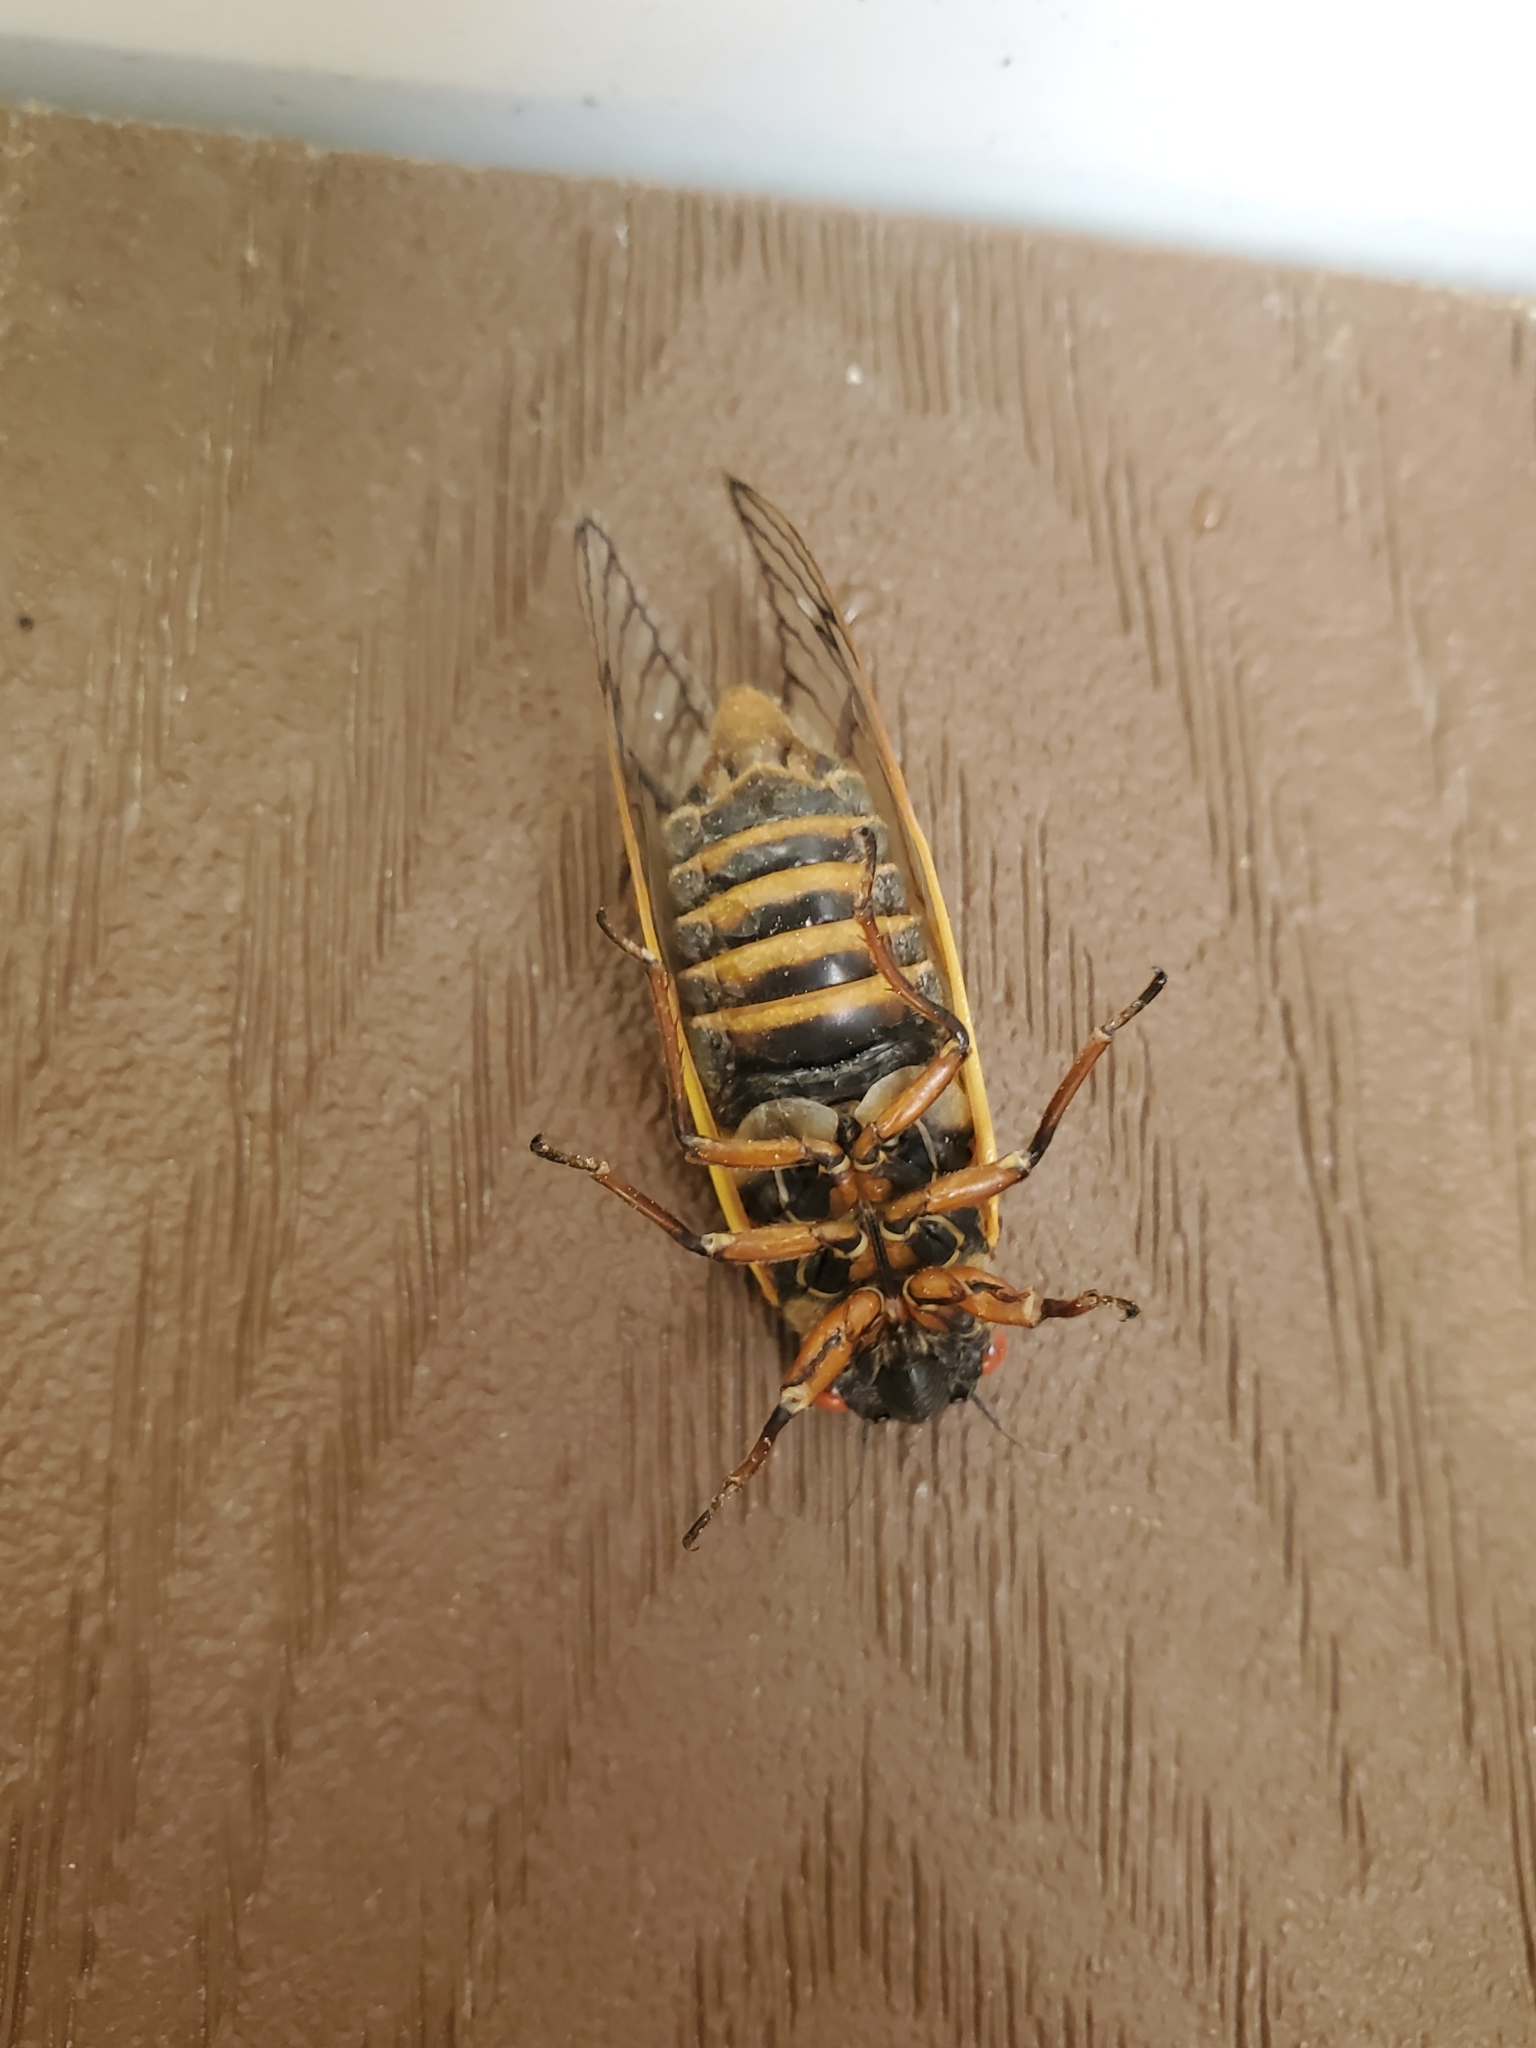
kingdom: Animalia
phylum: Arthropoda
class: Insecta
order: Hemiptera
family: Cicadidae
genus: Magicicada
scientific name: Magicicada septendecim
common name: Periodical cicada
